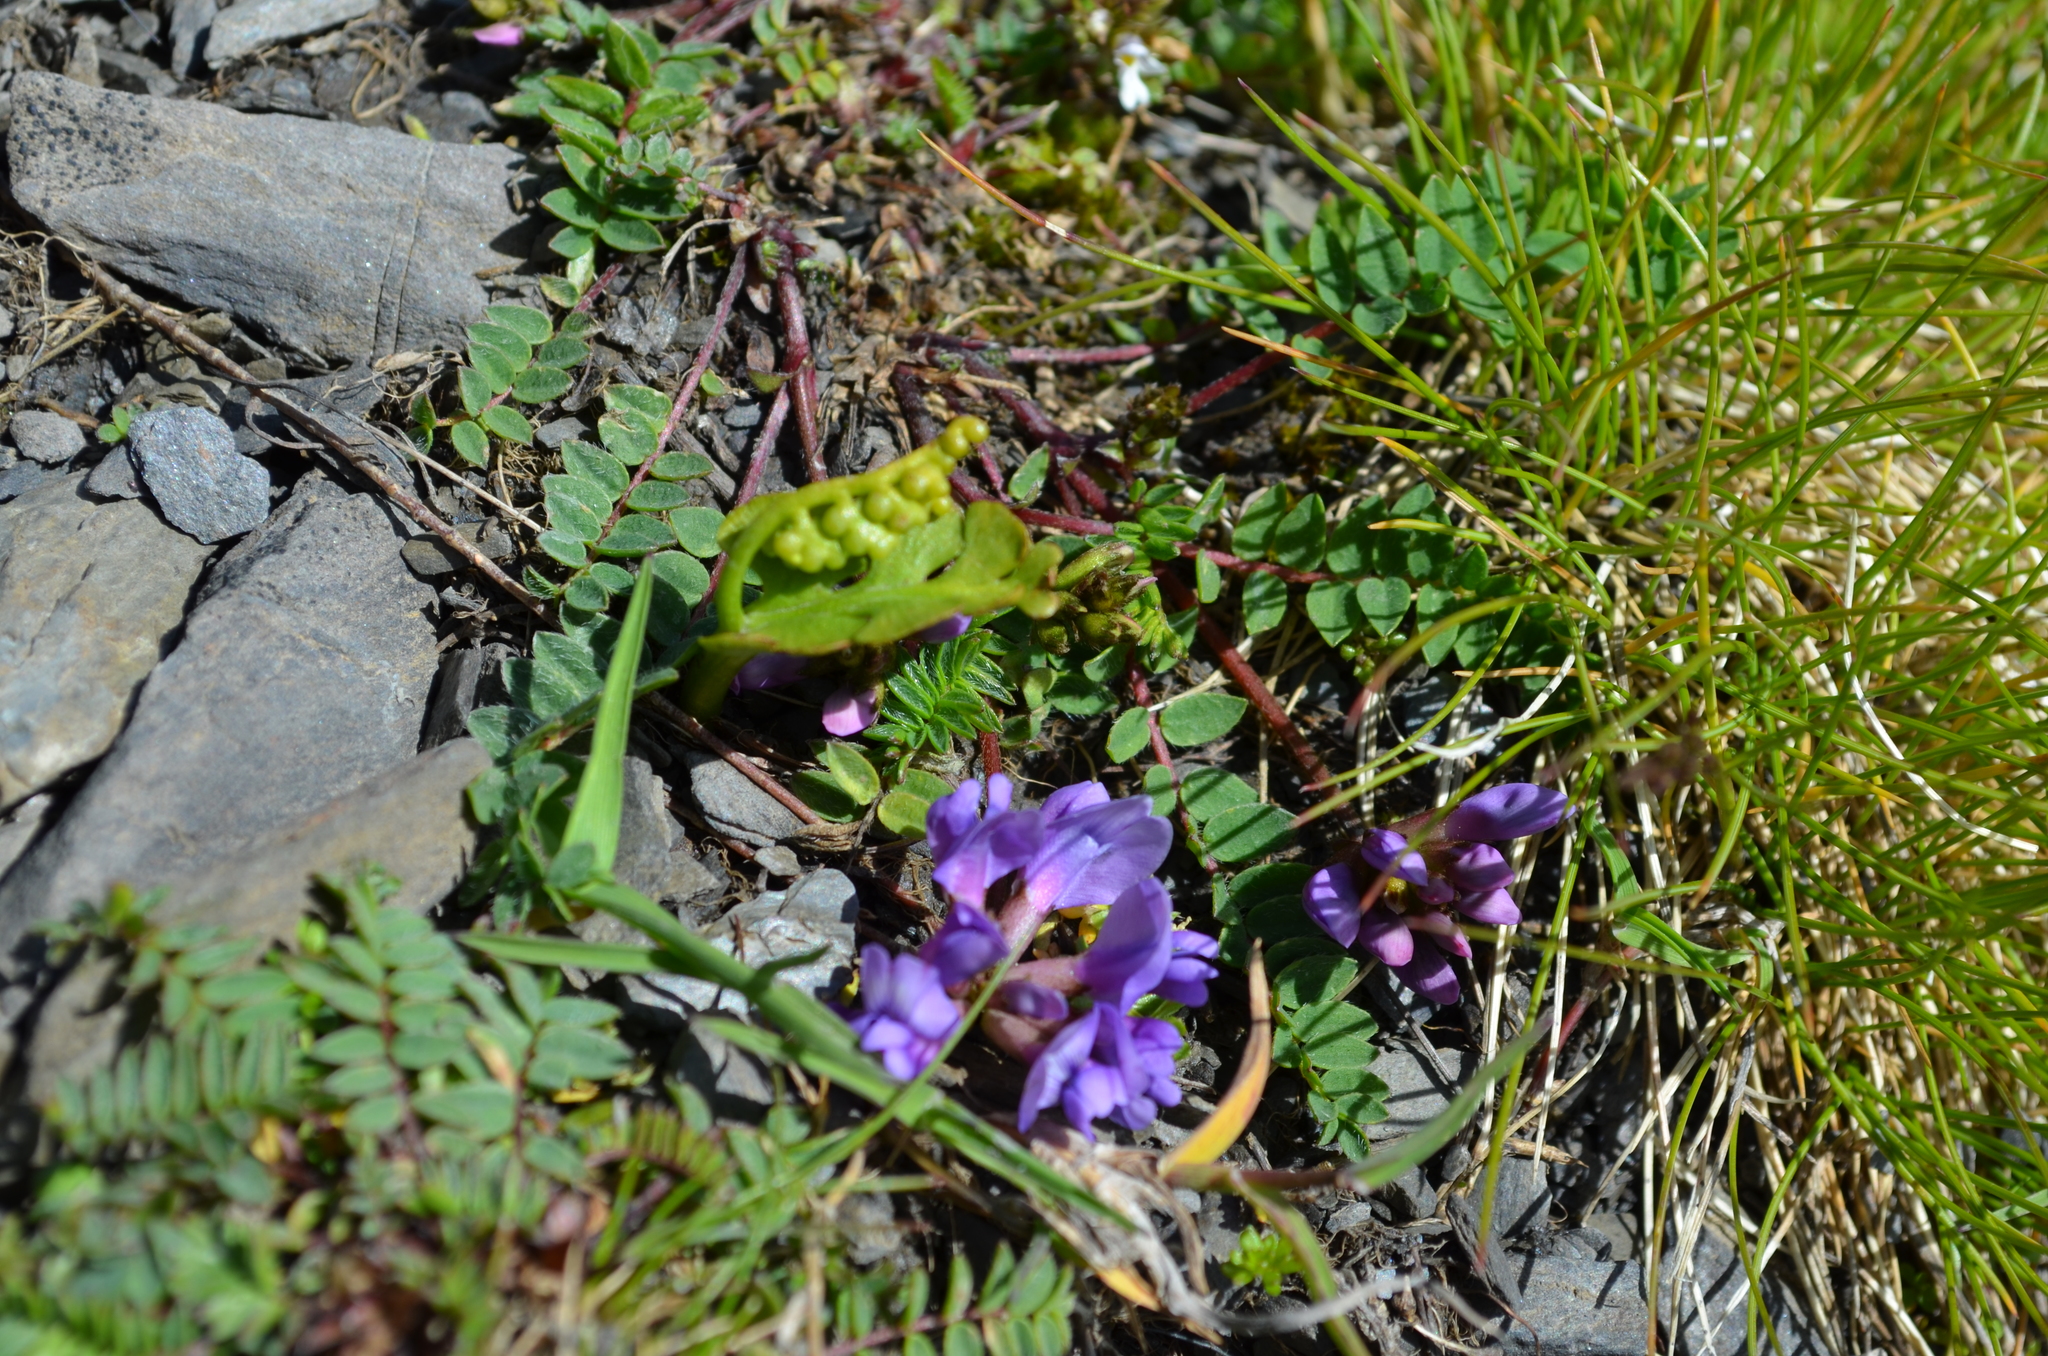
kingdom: Plantae
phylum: Tracheophyta
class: Magnoliopsida
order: Fabales
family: Fabaceae
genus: Oxytropis
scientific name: Oxytropis montana
